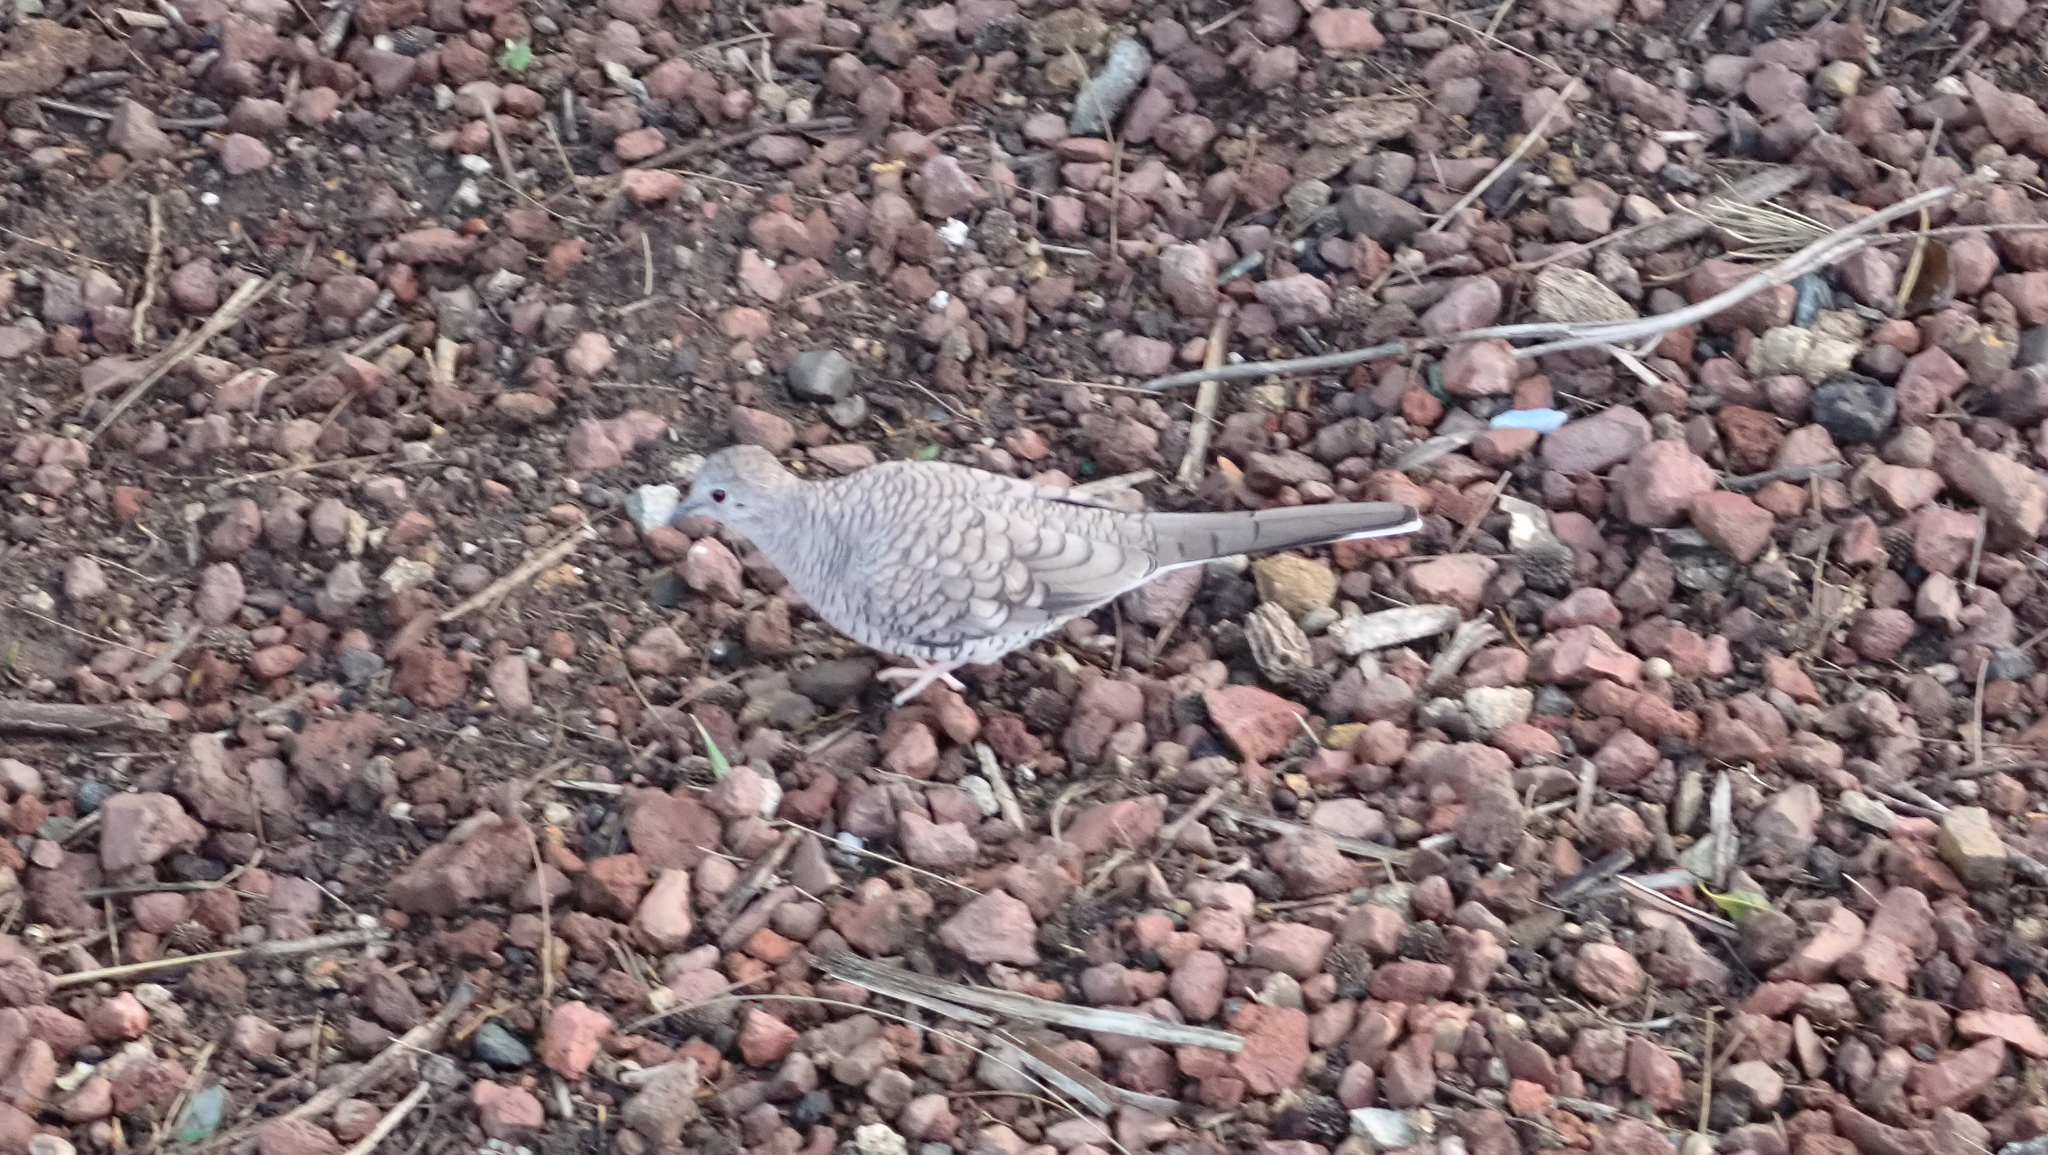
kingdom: Animalia
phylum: Chordata
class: Aves
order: Columbiformes
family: Columbidae
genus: Columbina
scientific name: Columbina inca
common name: Inca dove
